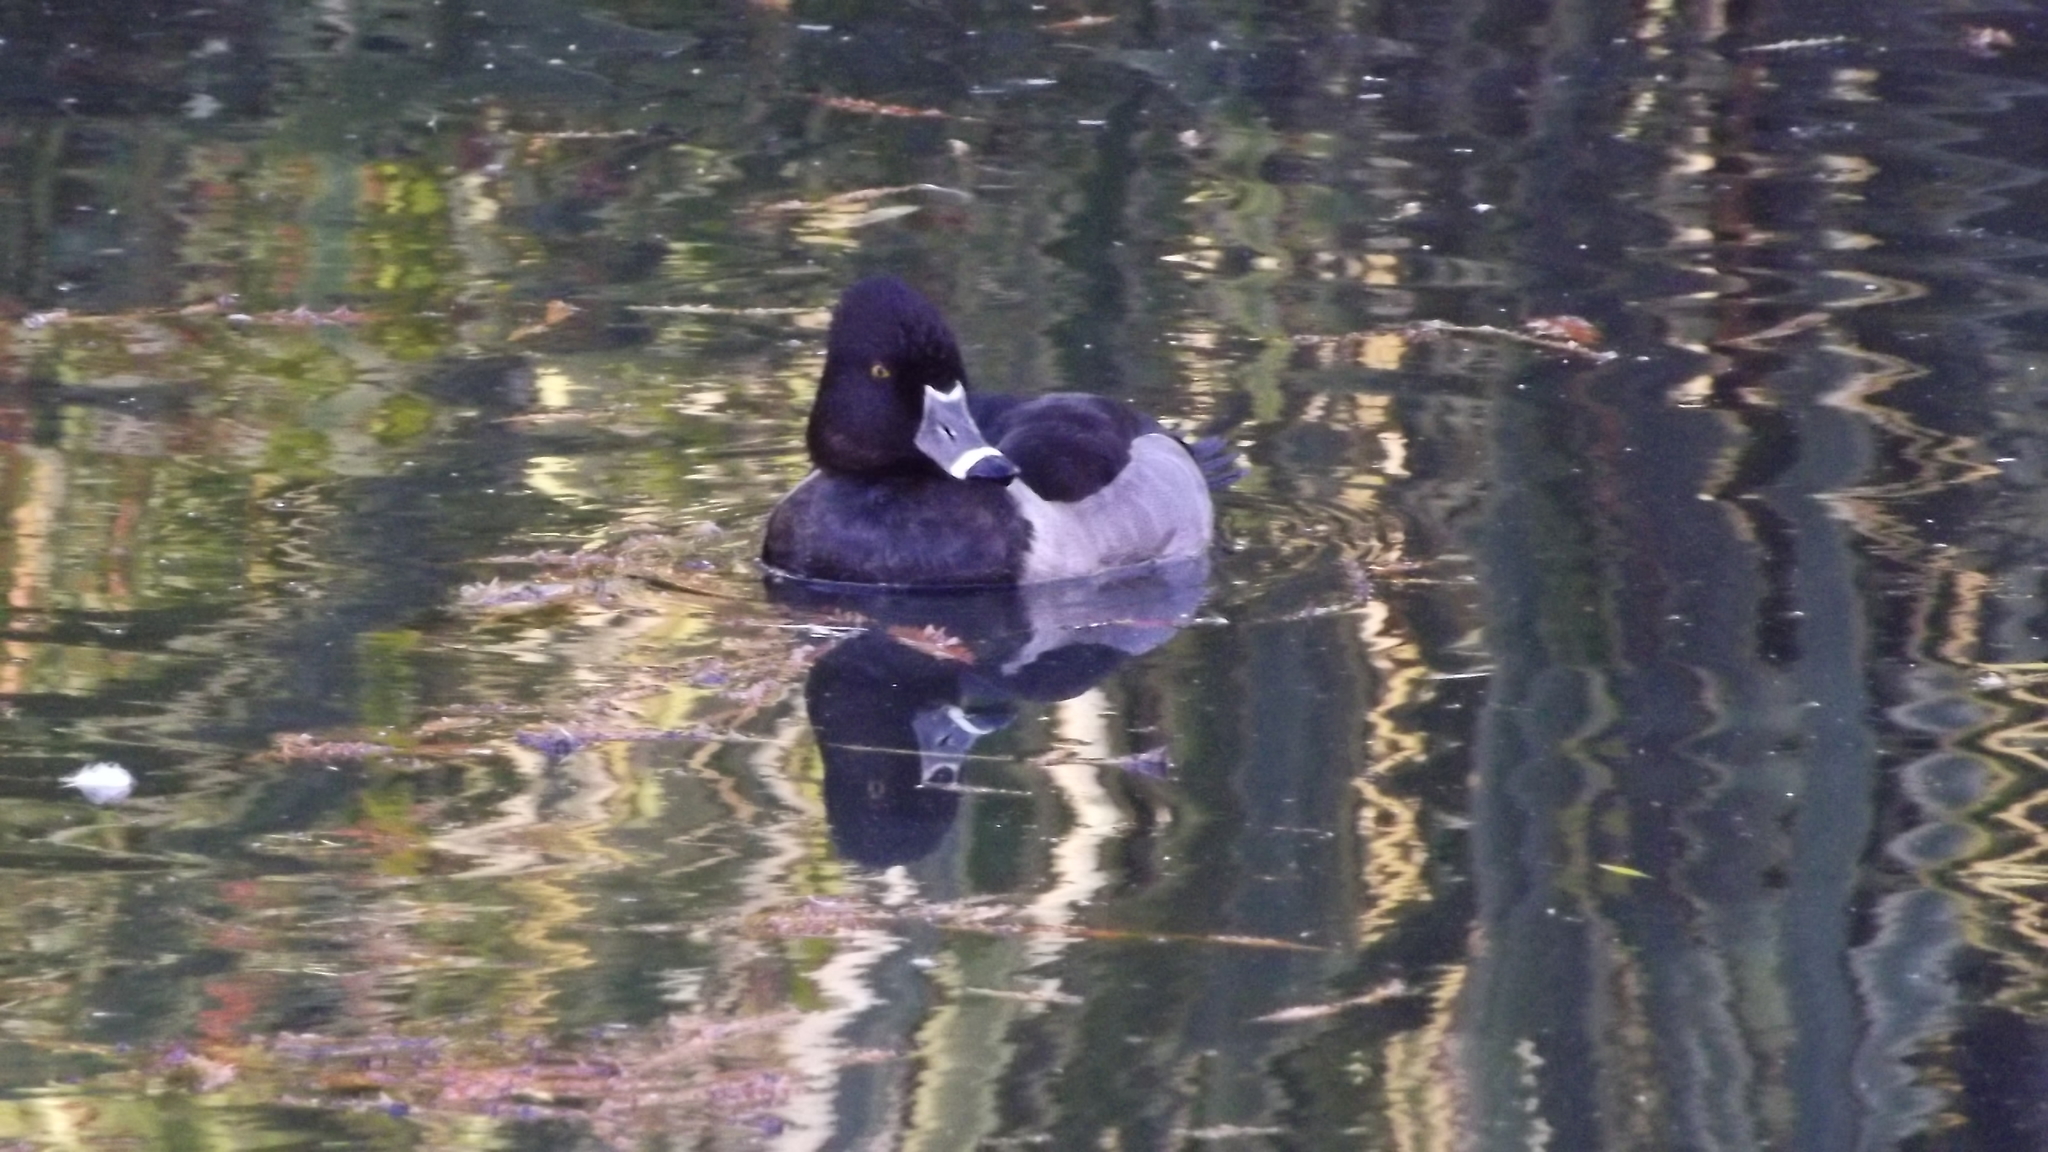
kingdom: Animalia
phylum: Chordata
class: Aves
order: Anseriformes
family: Anatidae
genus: Aythya
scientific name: Aythya collaris
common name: Ring-necked duck
